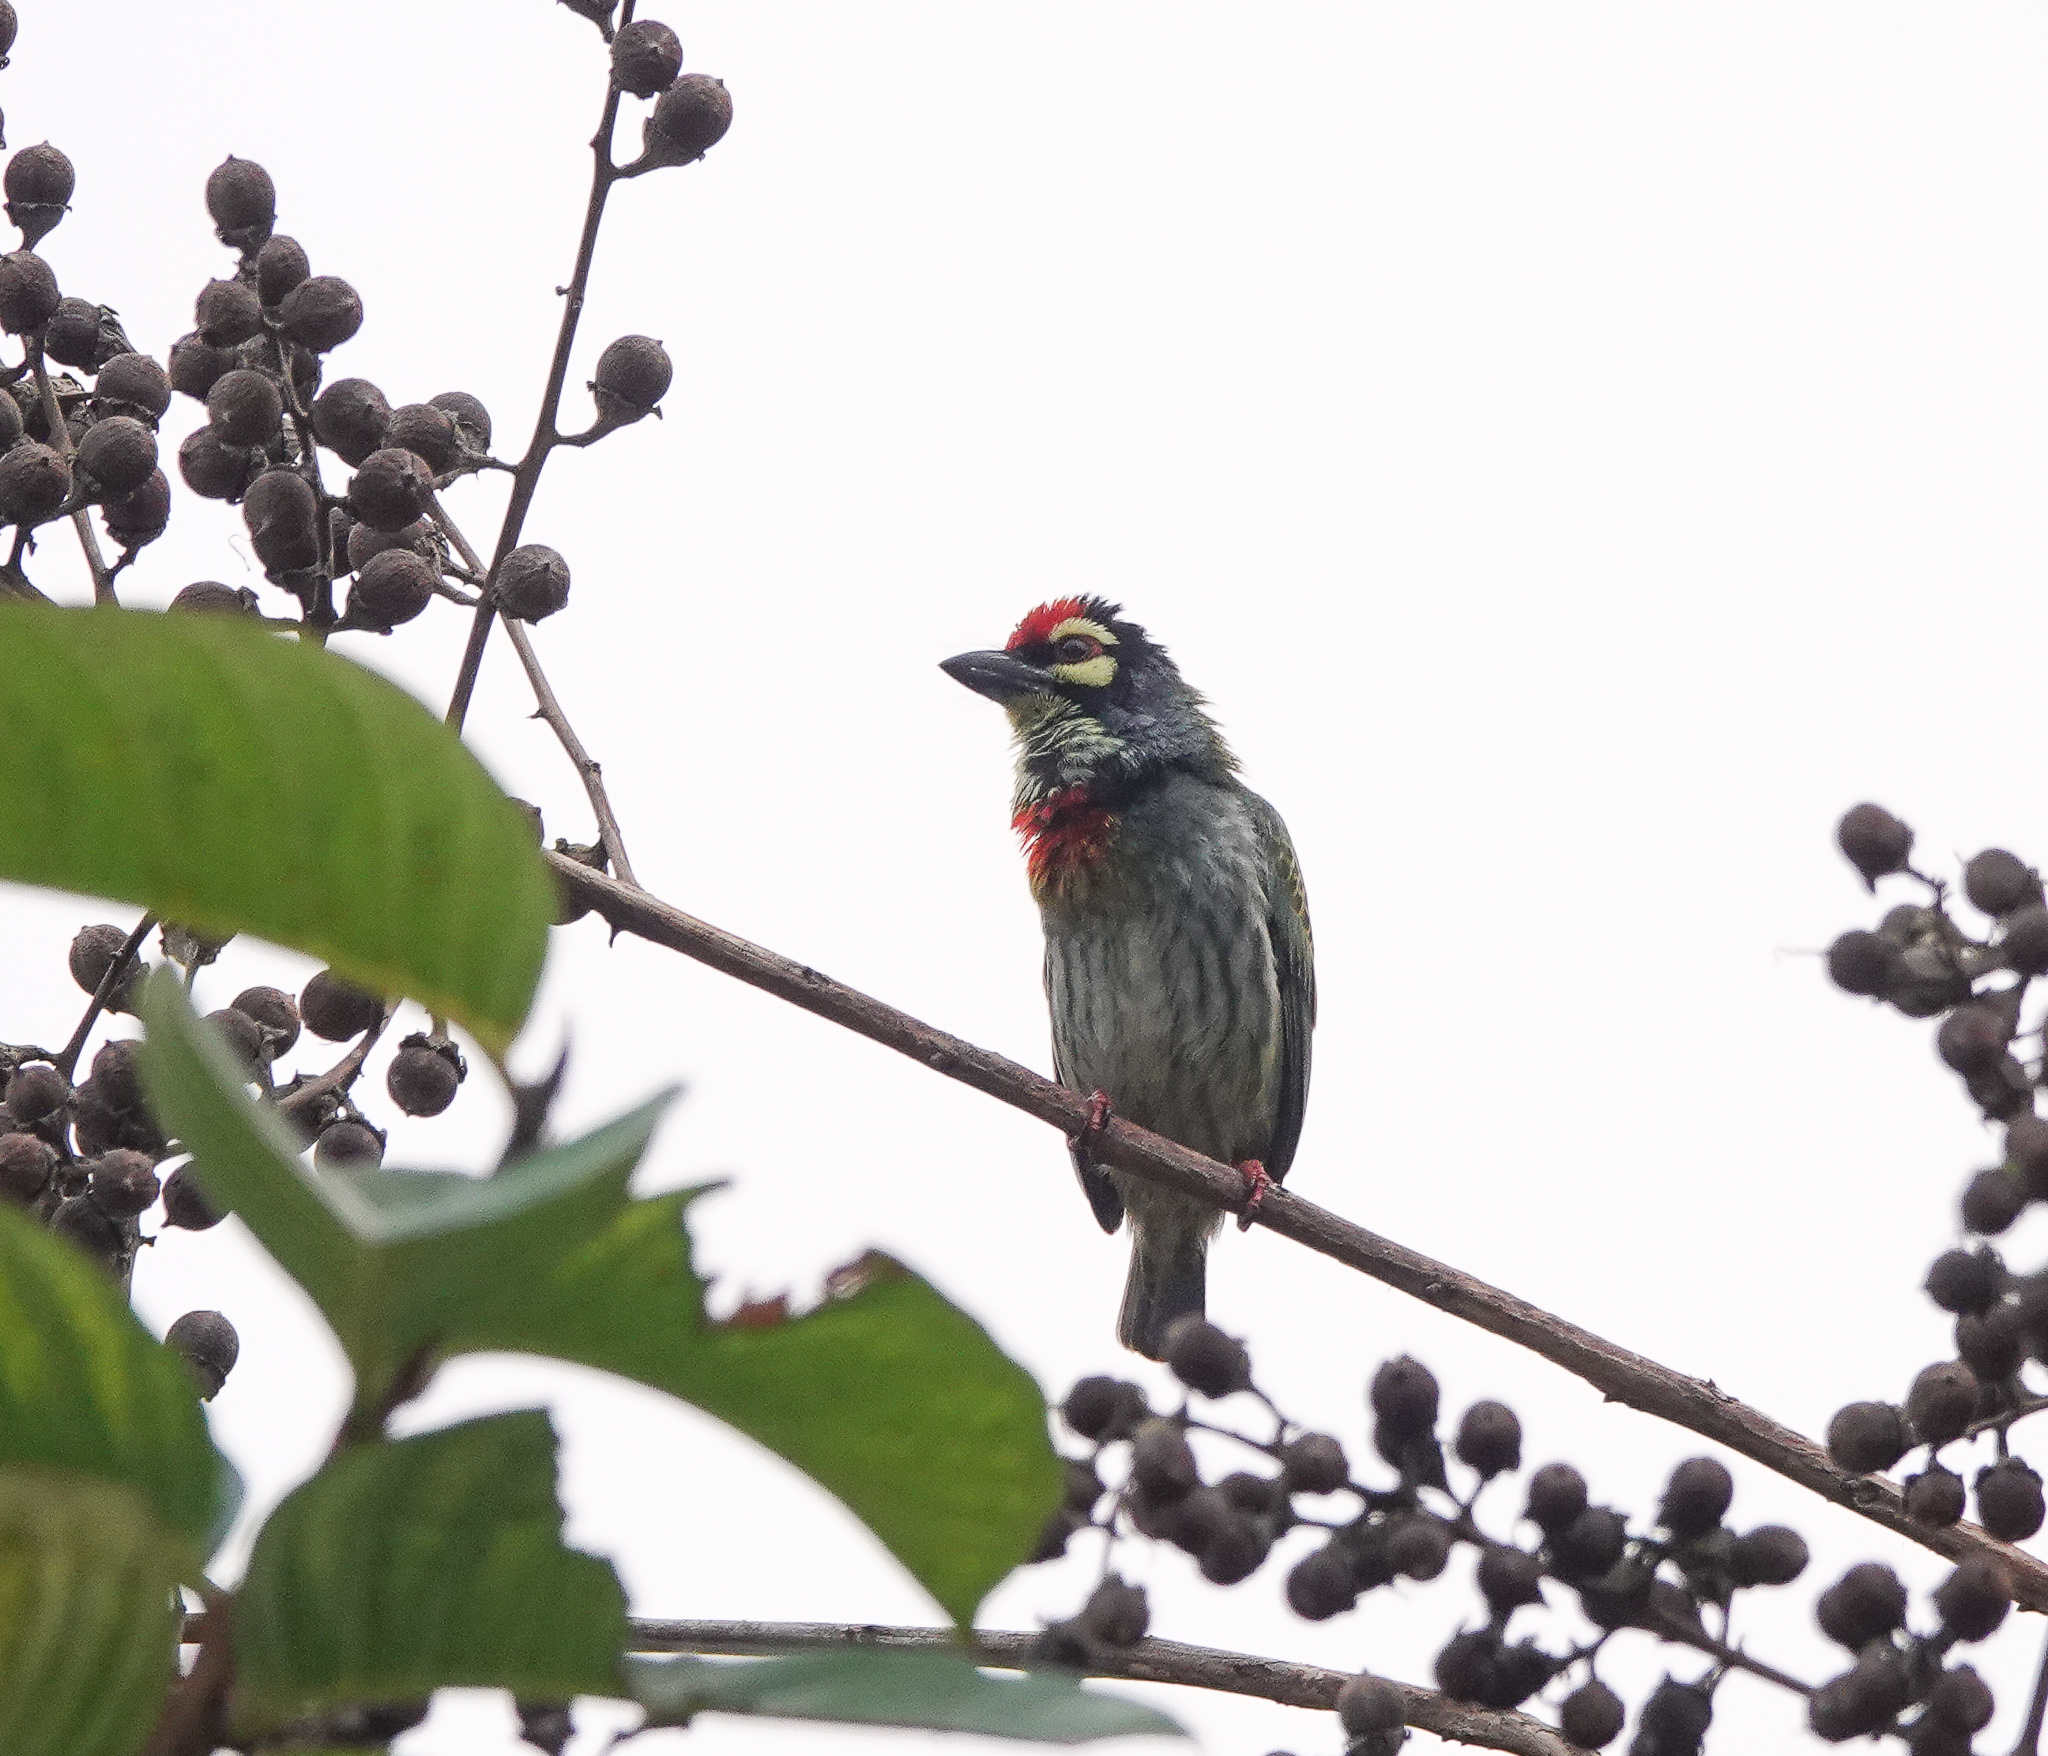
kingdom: Animalia
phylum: Chordata
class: Aves
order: Piciformes
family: Megalaimidae
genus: Psilopogon
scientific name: Psilopogon haemacephalus
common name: Coppersmith barbet
